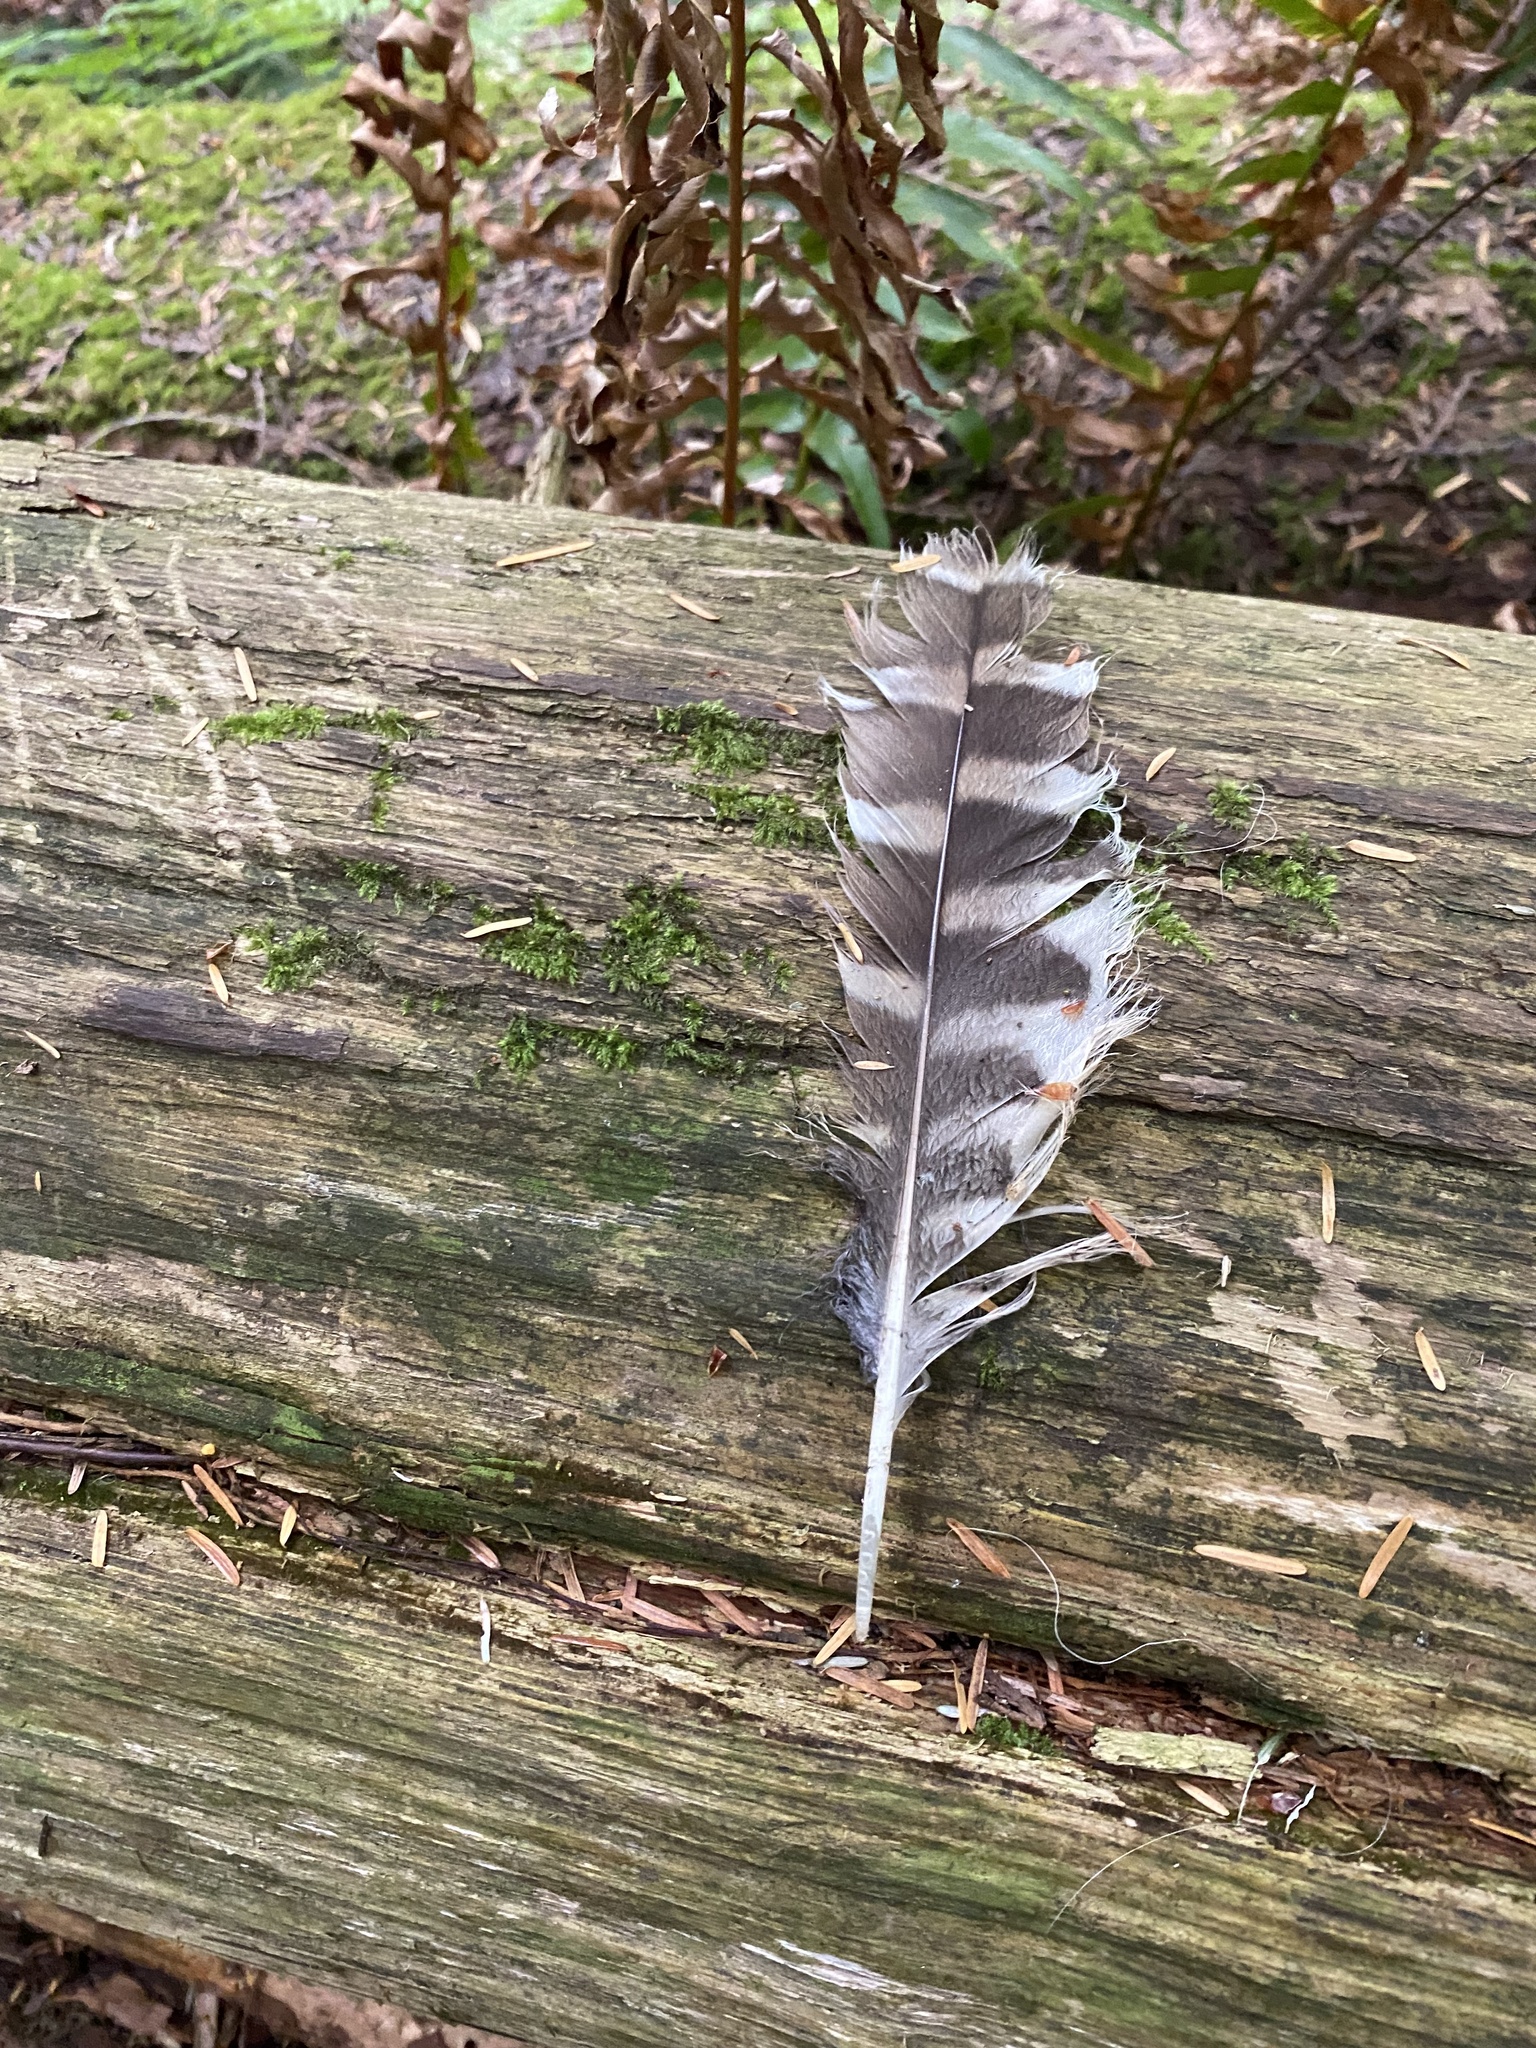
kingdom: Animalia
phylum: Chordata
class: Aves
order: Strigiformes
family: Strigidae
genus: Strix
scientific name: Strix varia
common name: Barred owl
